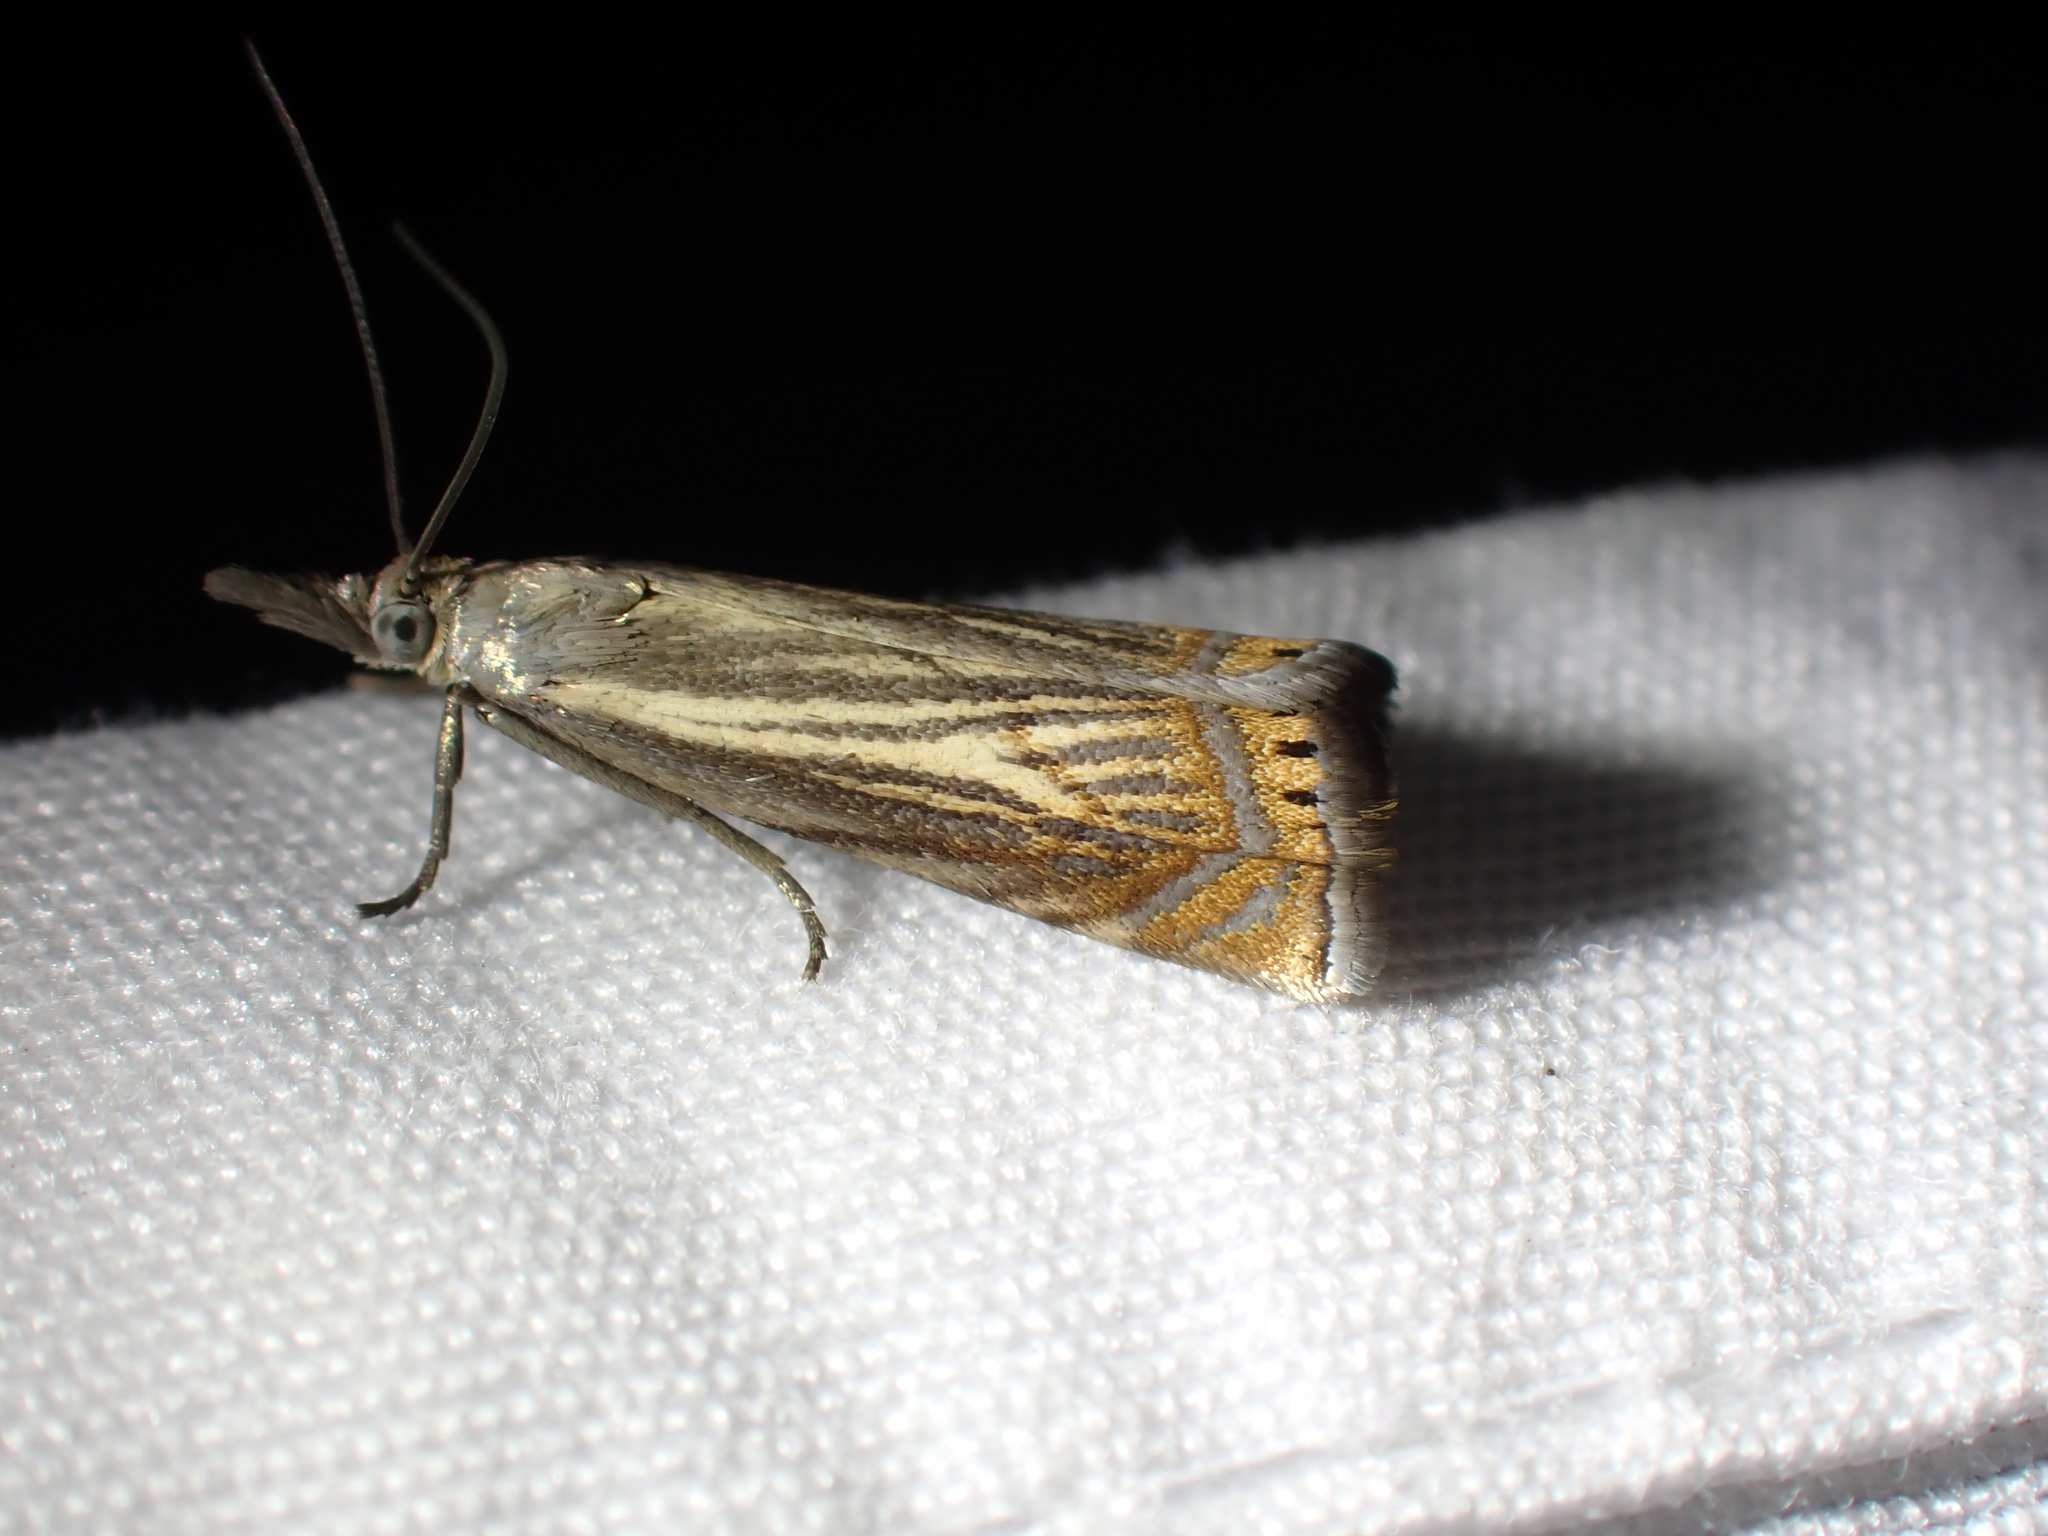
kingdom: Animalia
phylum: Arthropoda
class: Insecta
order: Lepidoptera
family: Crambidae
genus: Chrysoteuchia
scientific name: Chrysoteuchia topiarius
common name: Topiary grass-veneer
